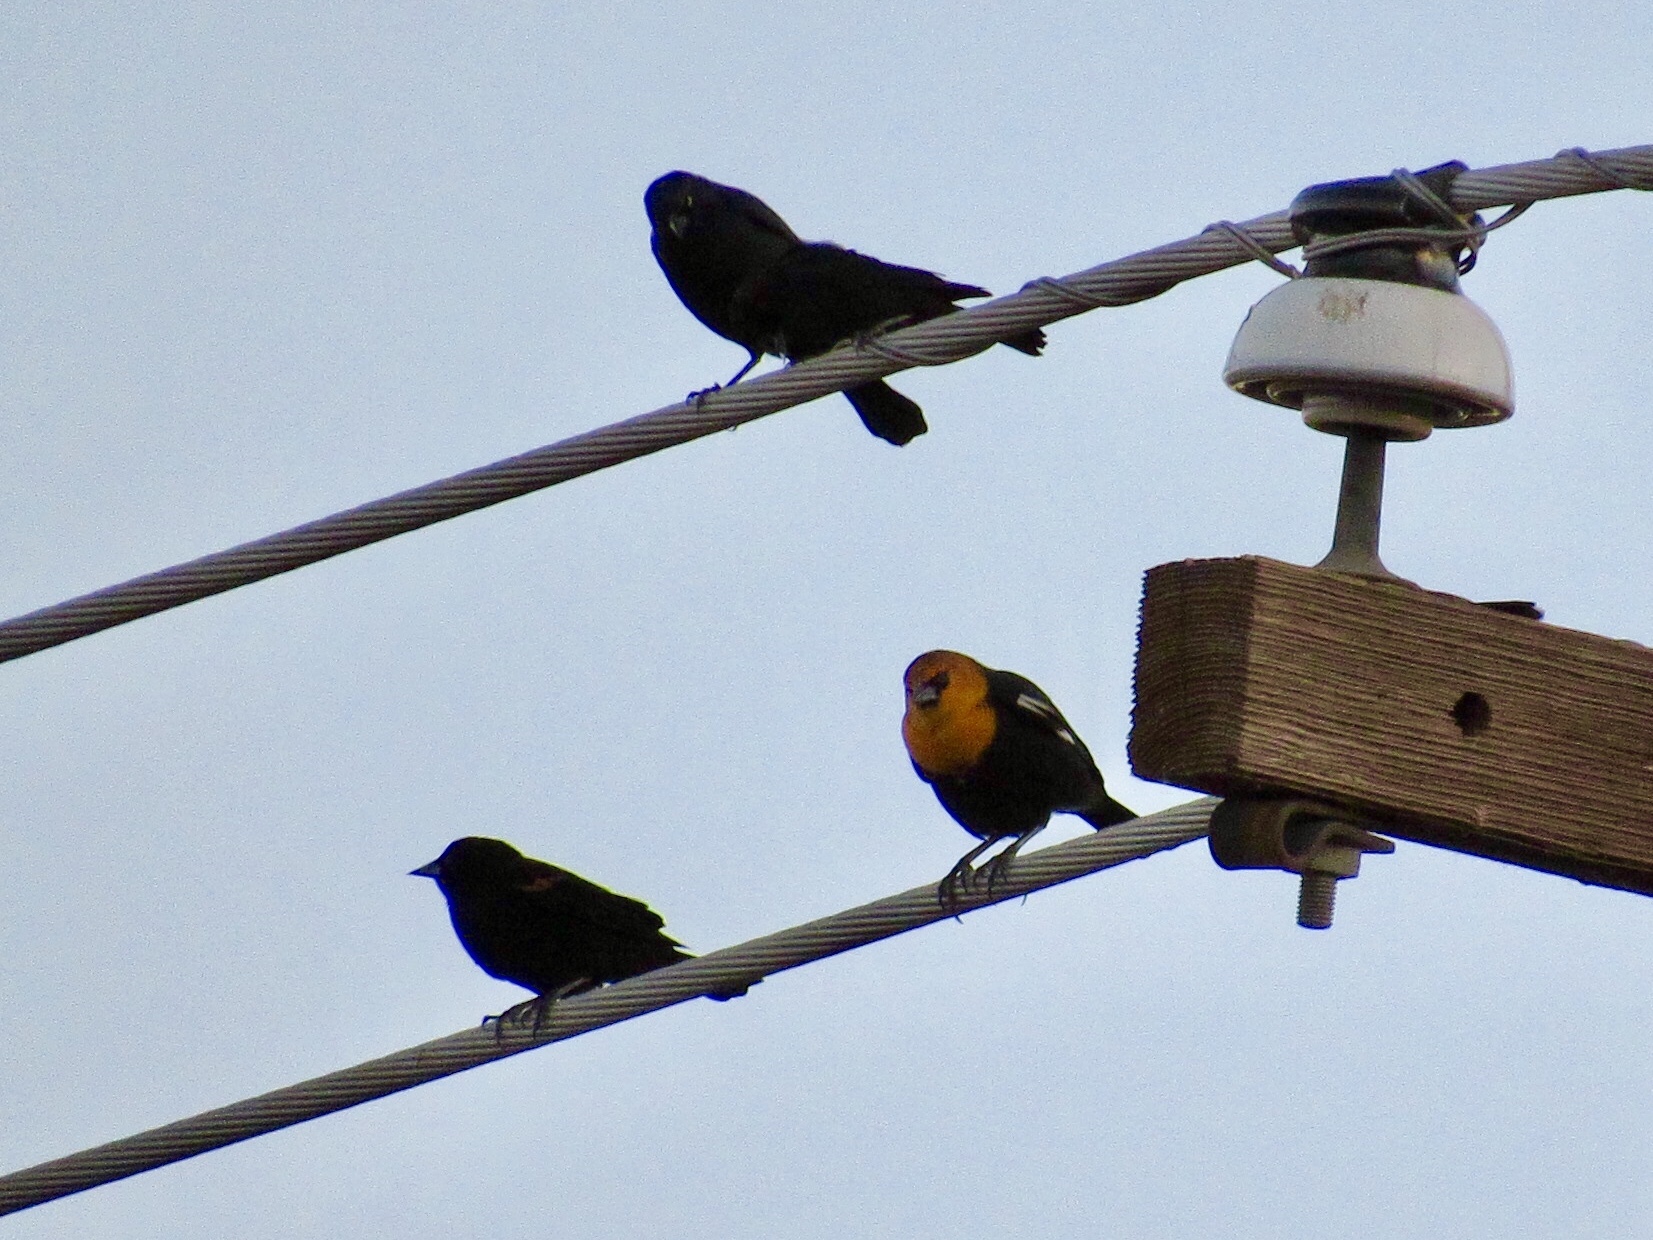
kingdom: Animalia
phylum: Chordata
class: Aves
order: Passeriformes
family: Icteridae
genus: Xanthocephalus
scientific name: Xanthocephalus xanthocephalus
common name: Yellow-headed blackbird
